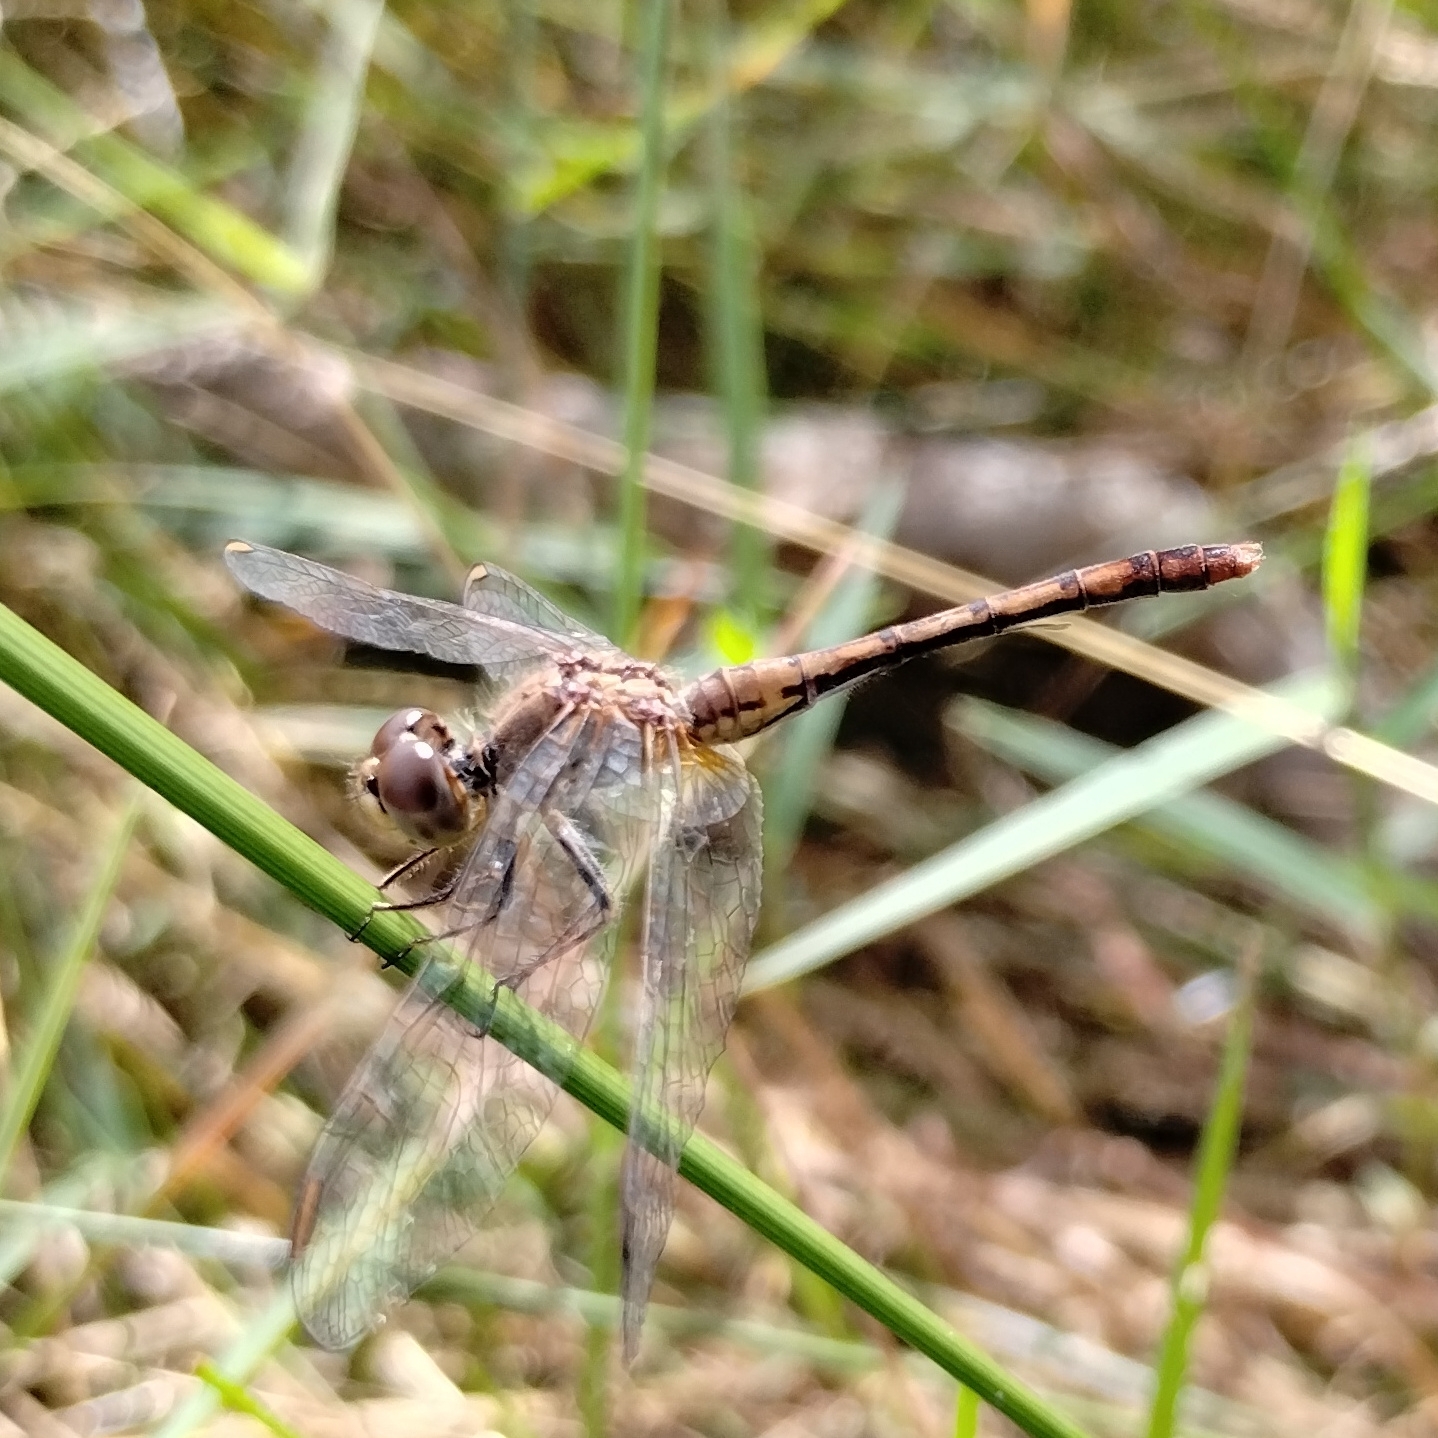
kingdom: Animalia
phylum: Arthropoda
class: Insecta
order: Odonata
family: Libellulidae
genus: Diplacodes
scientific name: Diplacodes bipunctata
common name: Red percher dragonfly
